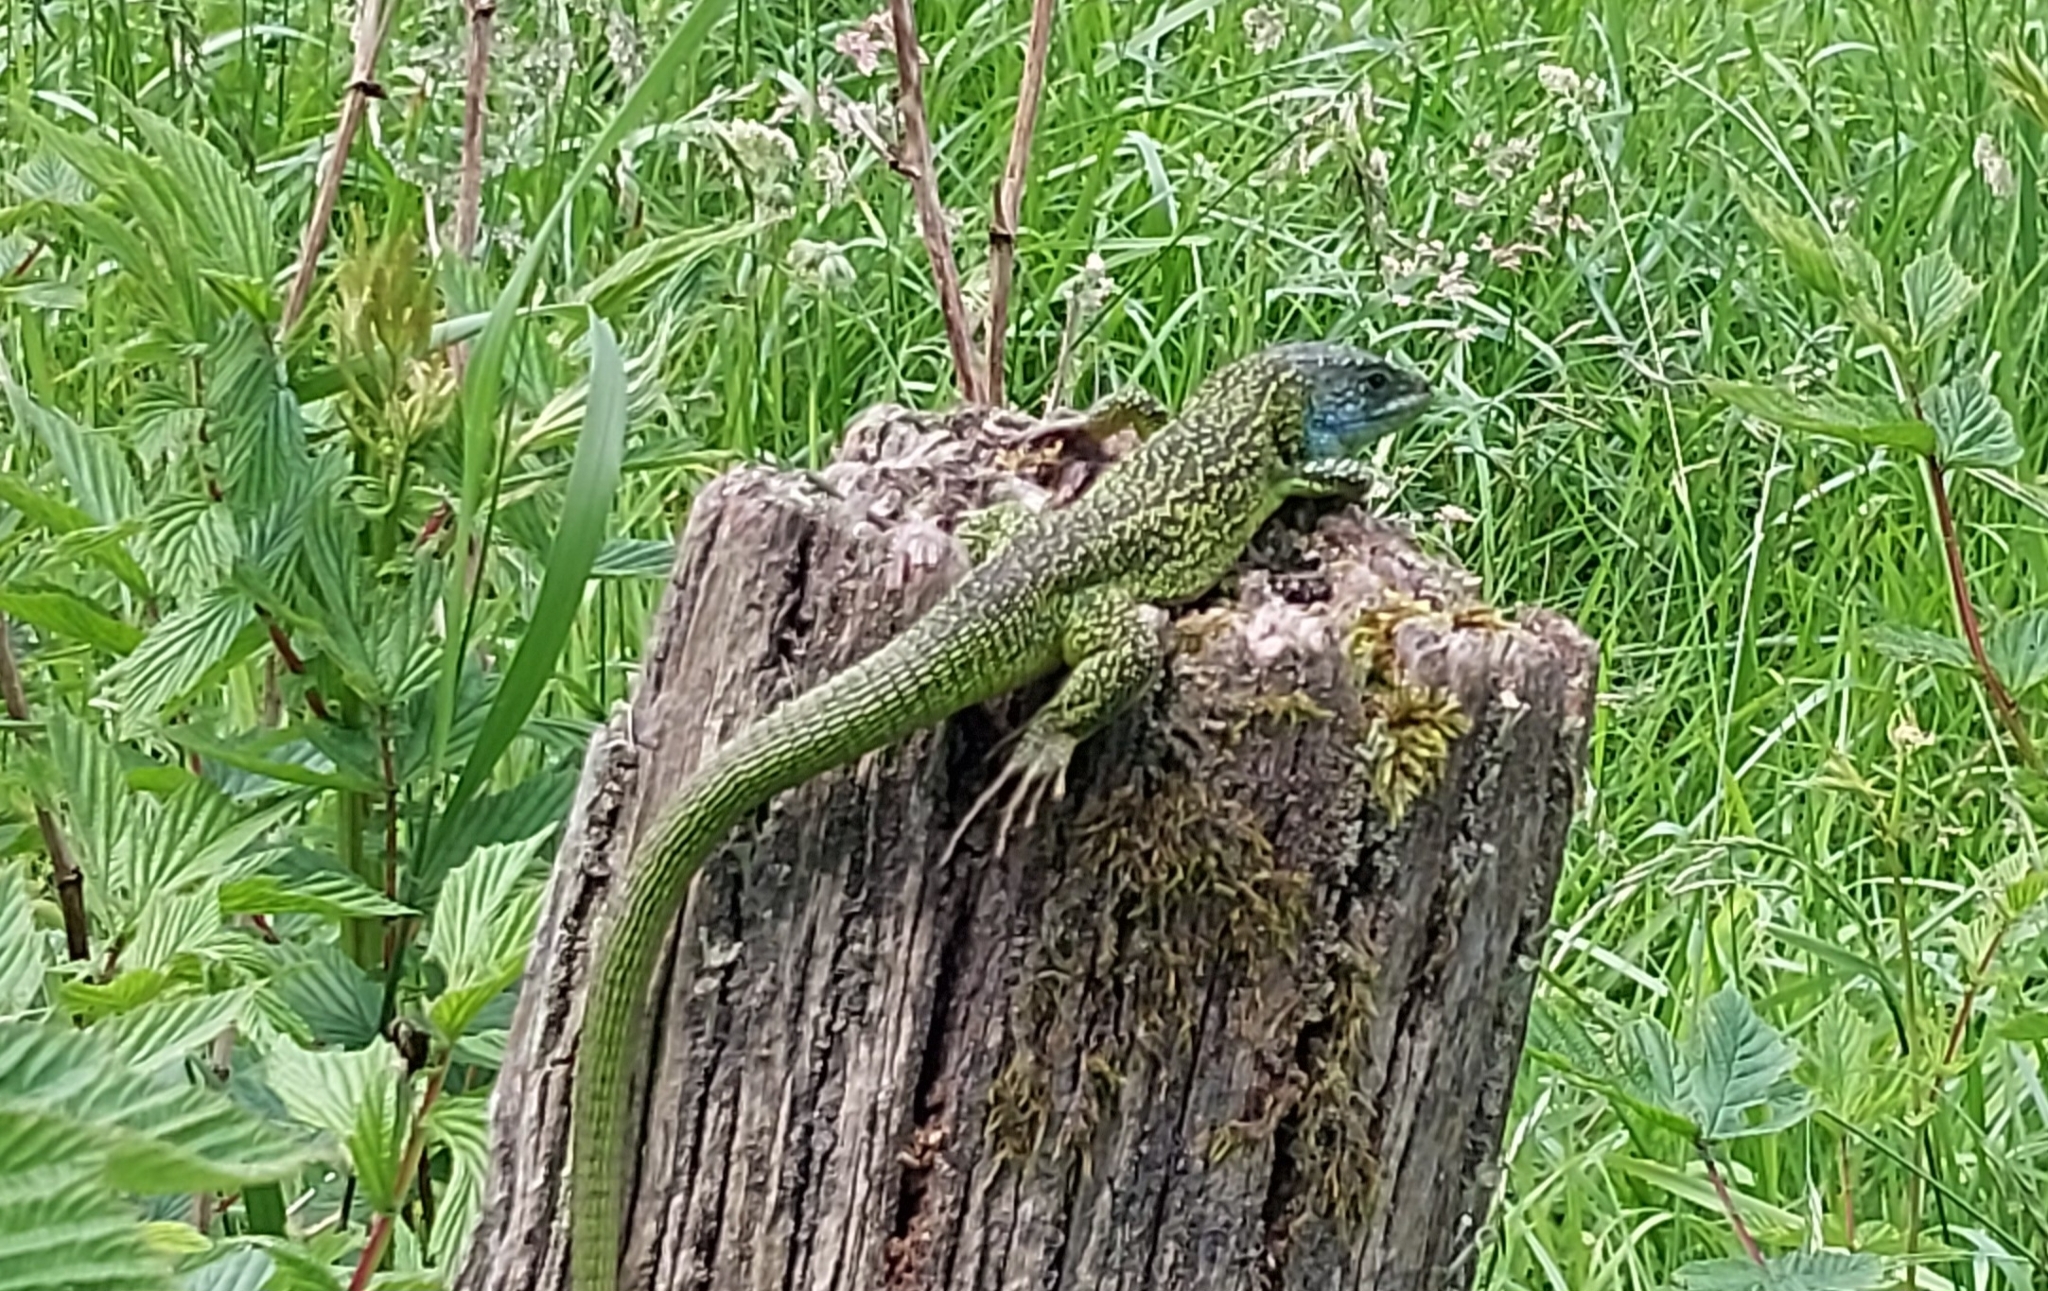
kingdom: Animalia
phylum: Chordata
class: Squamata
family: Lacertidae
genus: Lacerta
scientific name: Lacerta bilineata
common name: Western green lizard
